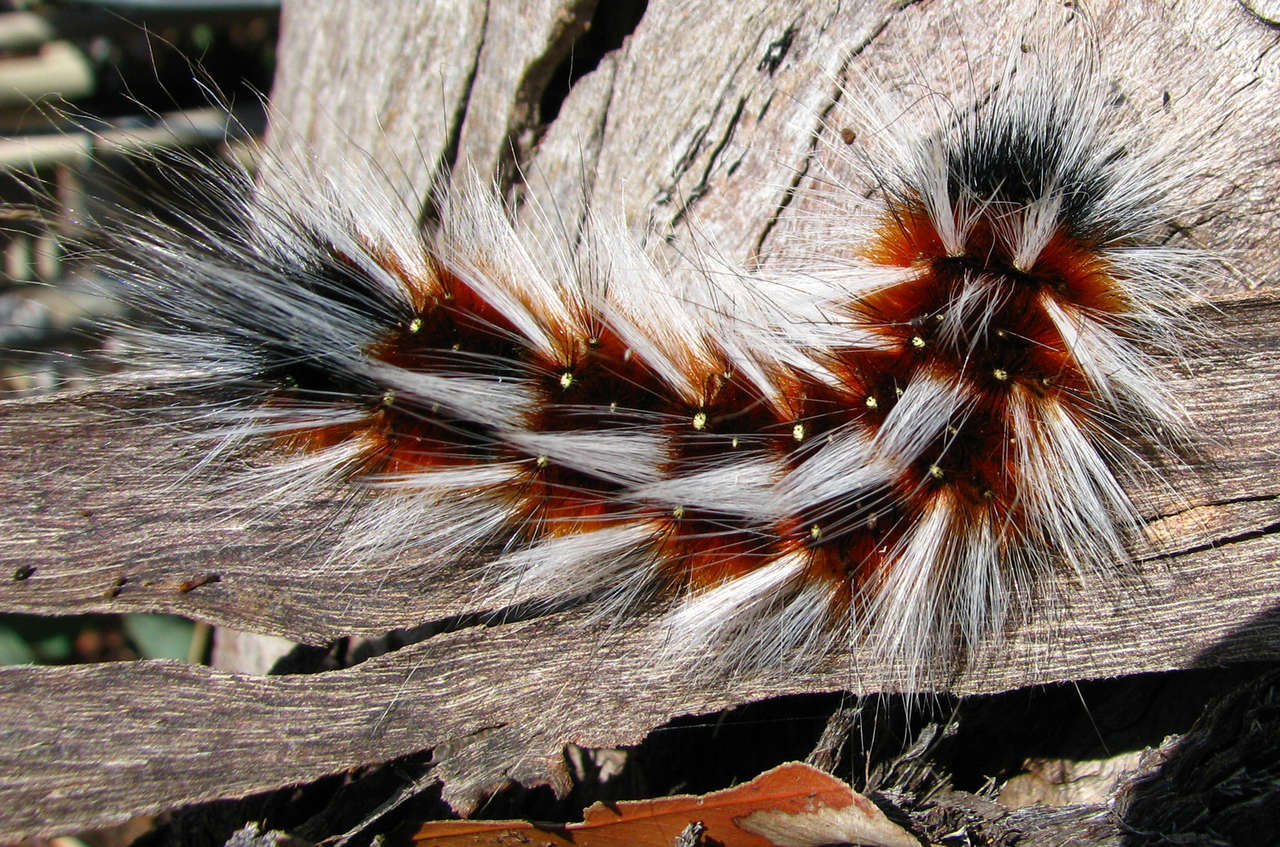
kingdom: Animalia
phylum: Arthropoda
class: Insecta
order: Lepidoptera
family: Anthelidae
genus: Anthela
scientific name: Anthela varia
